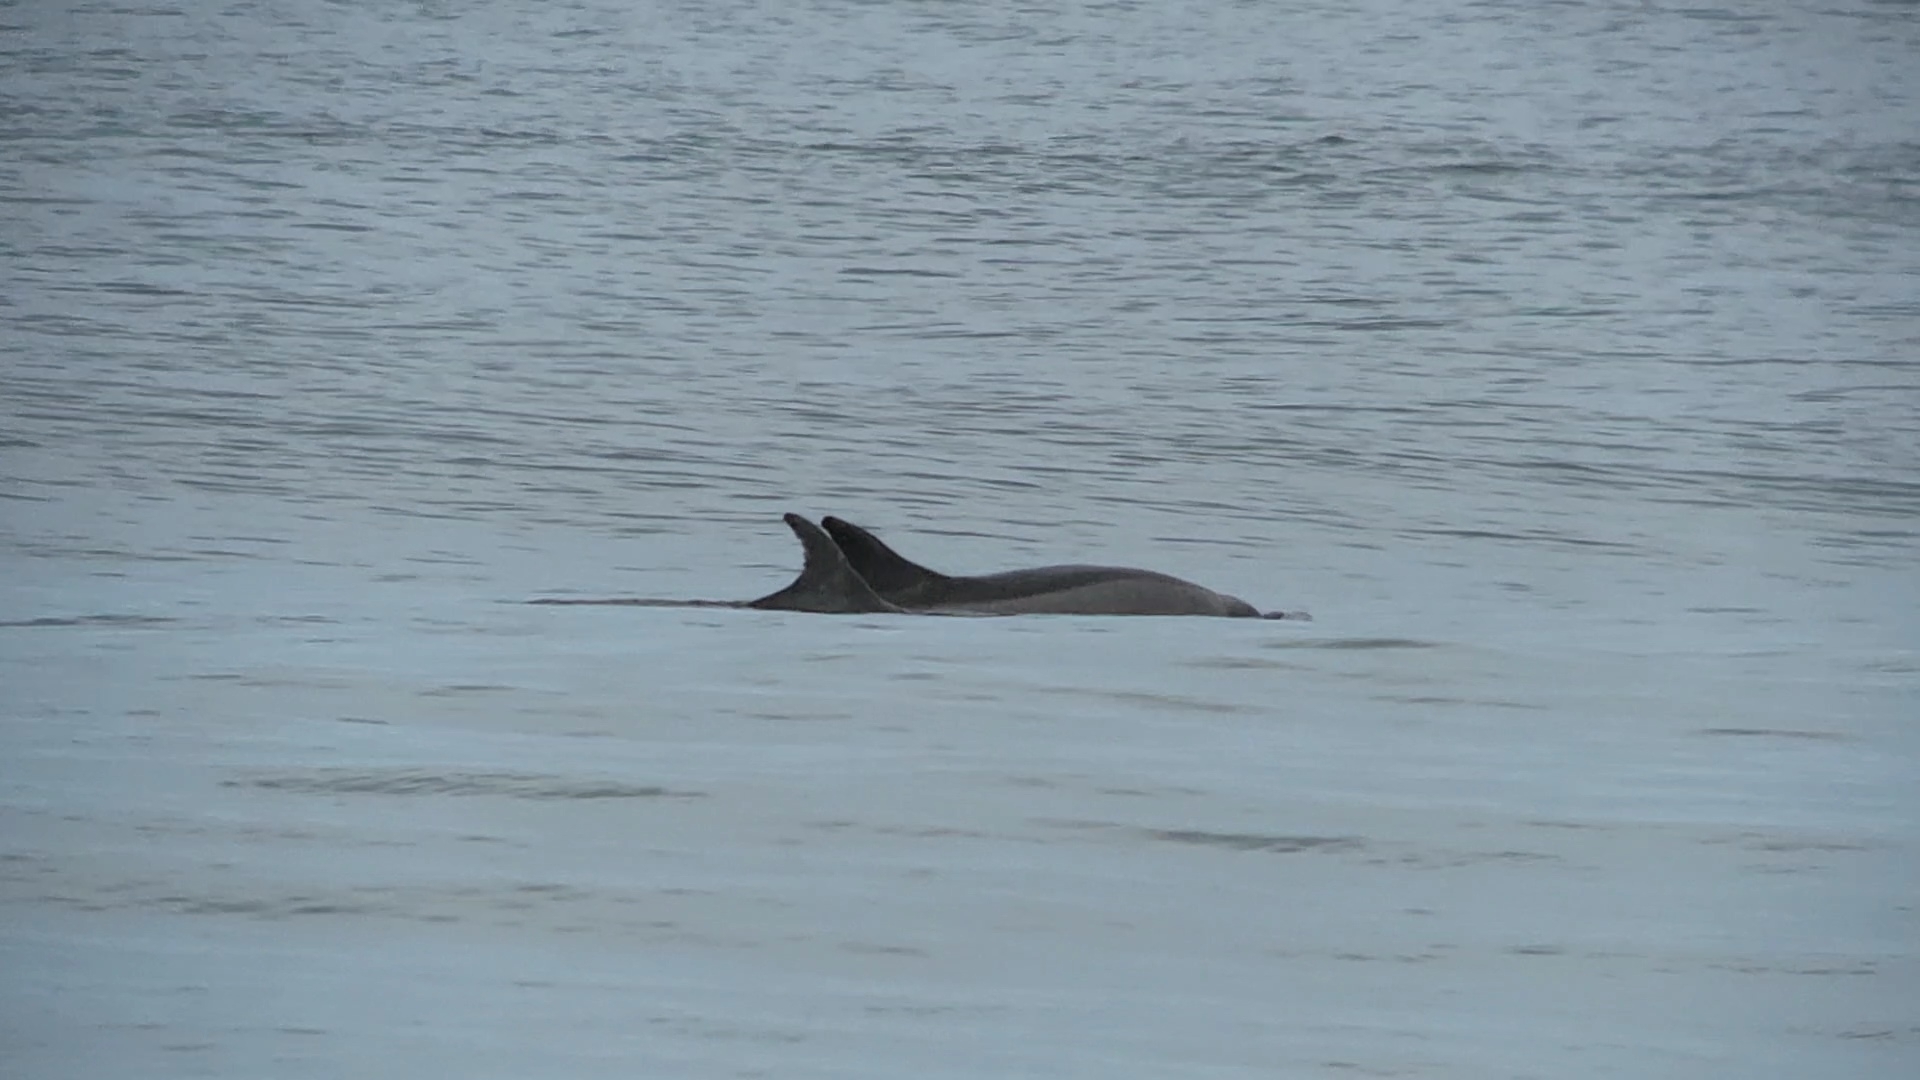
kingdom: Animalia
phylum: Chordata
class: Mammalia
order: Cetacea
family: Delphinidae
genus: Tursiops
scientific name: Tursiops truncatus
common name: Bottlenose dolphin
